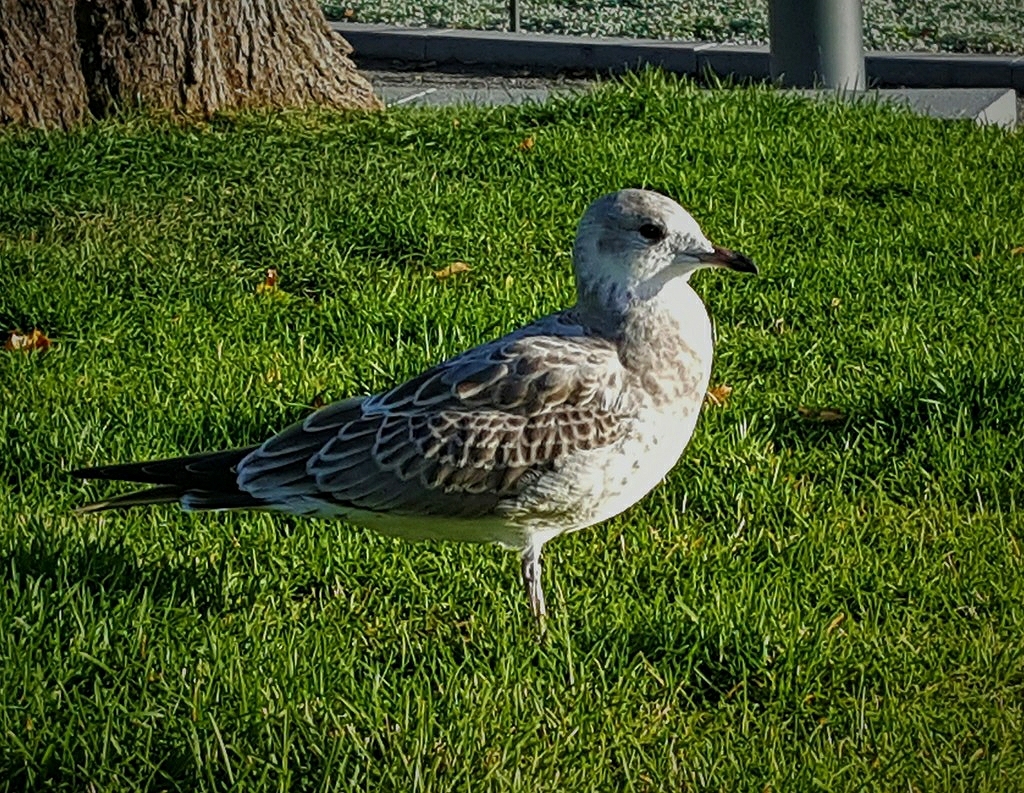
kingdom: Animalia
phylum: Chordata
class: Aves
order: Charadriiformes
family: Laridae
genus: Larus
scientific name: Larus canus
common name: Mew gull
